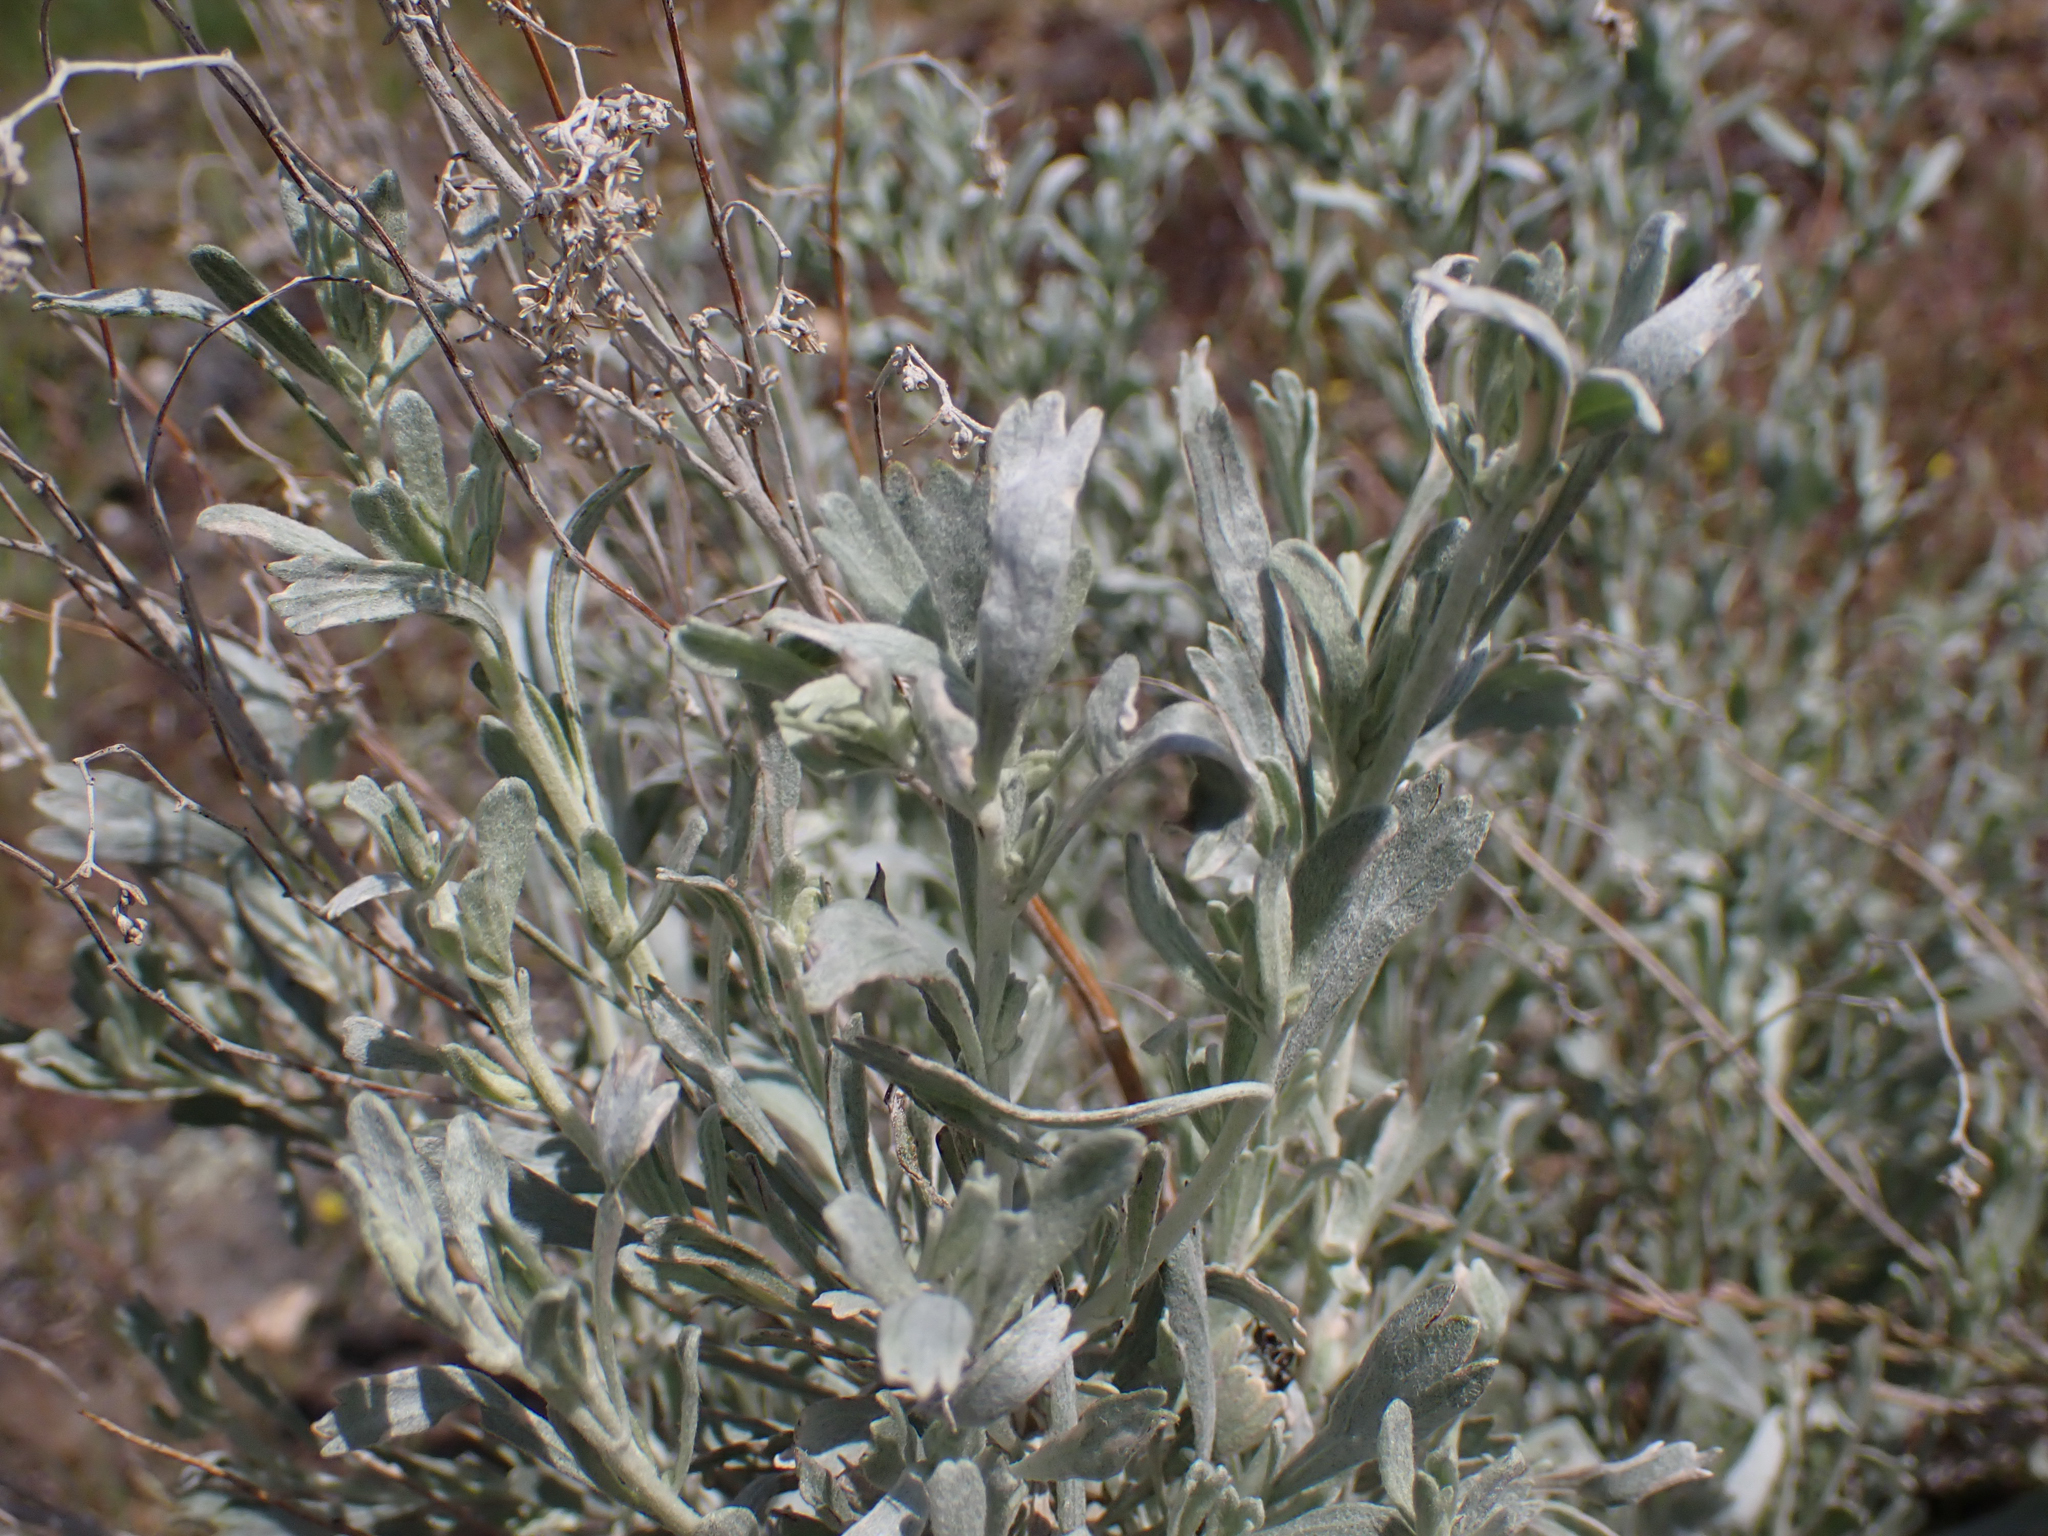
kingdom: Plantae
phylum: Tracheophyta
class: Magnoliopsida
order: Asterales
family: Asteraceae
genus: Artemisia
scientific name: Artemisia tridentata
